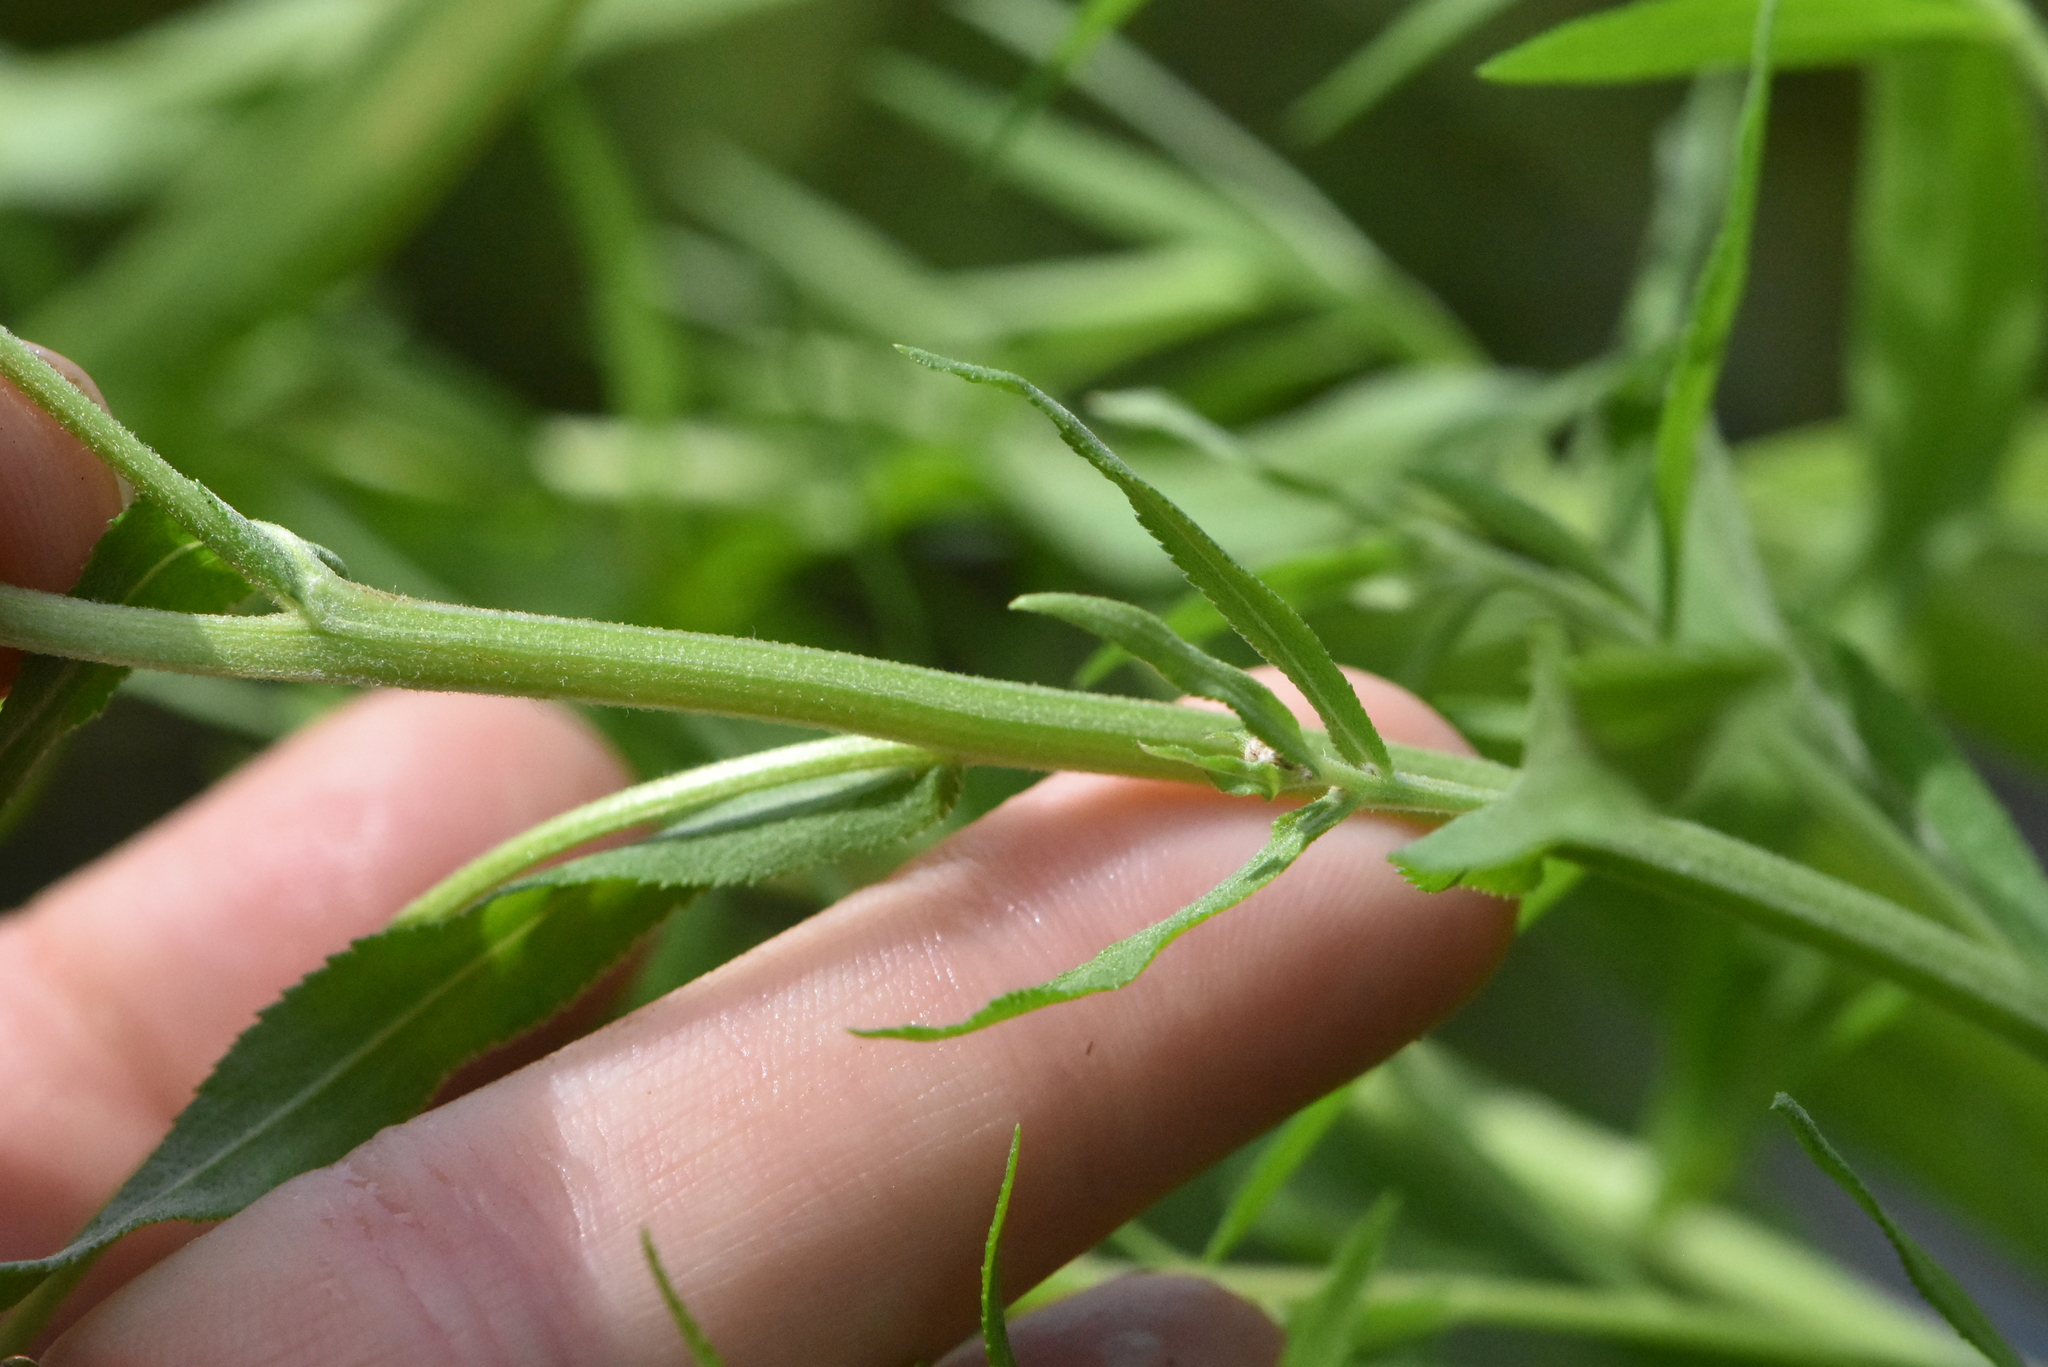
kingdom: Plantae
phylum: Tracheophyta
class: Magnoliopsida
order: Asterales
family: Asteraceae
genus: Achillea
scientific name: Achillea salicifolia
